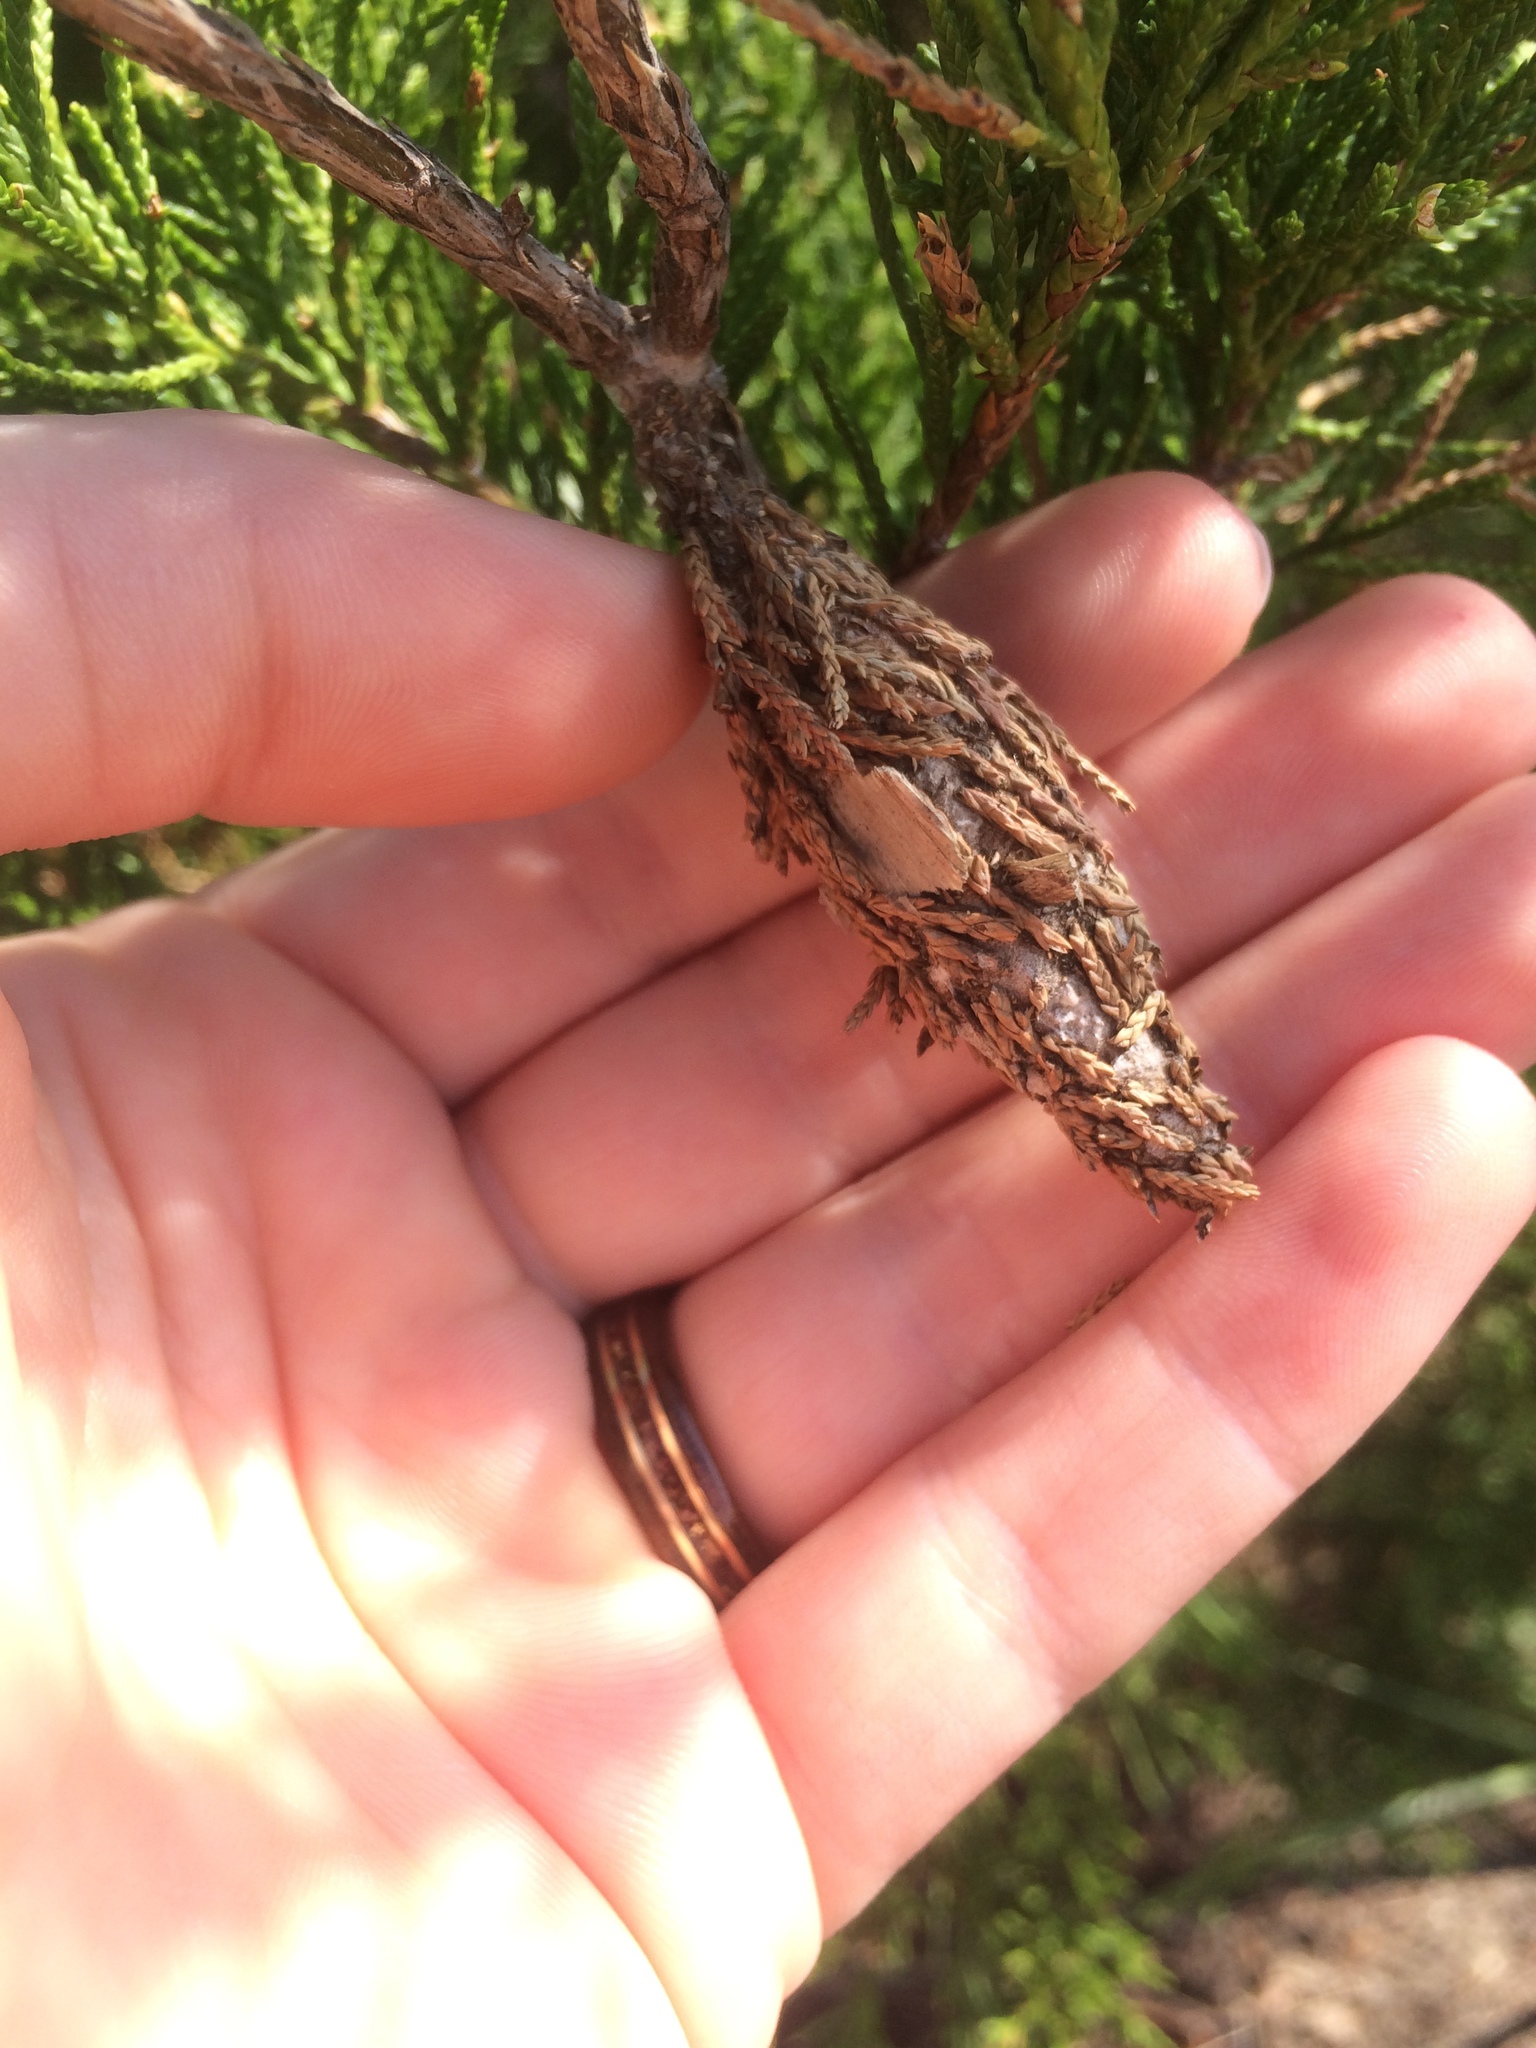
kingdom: Animalia
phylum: Arthropoda
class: Insecta
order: Lepidoptera
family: Psychidae
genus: Thyridopteryx
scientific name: Thyridopteryx ephemeraeformis
